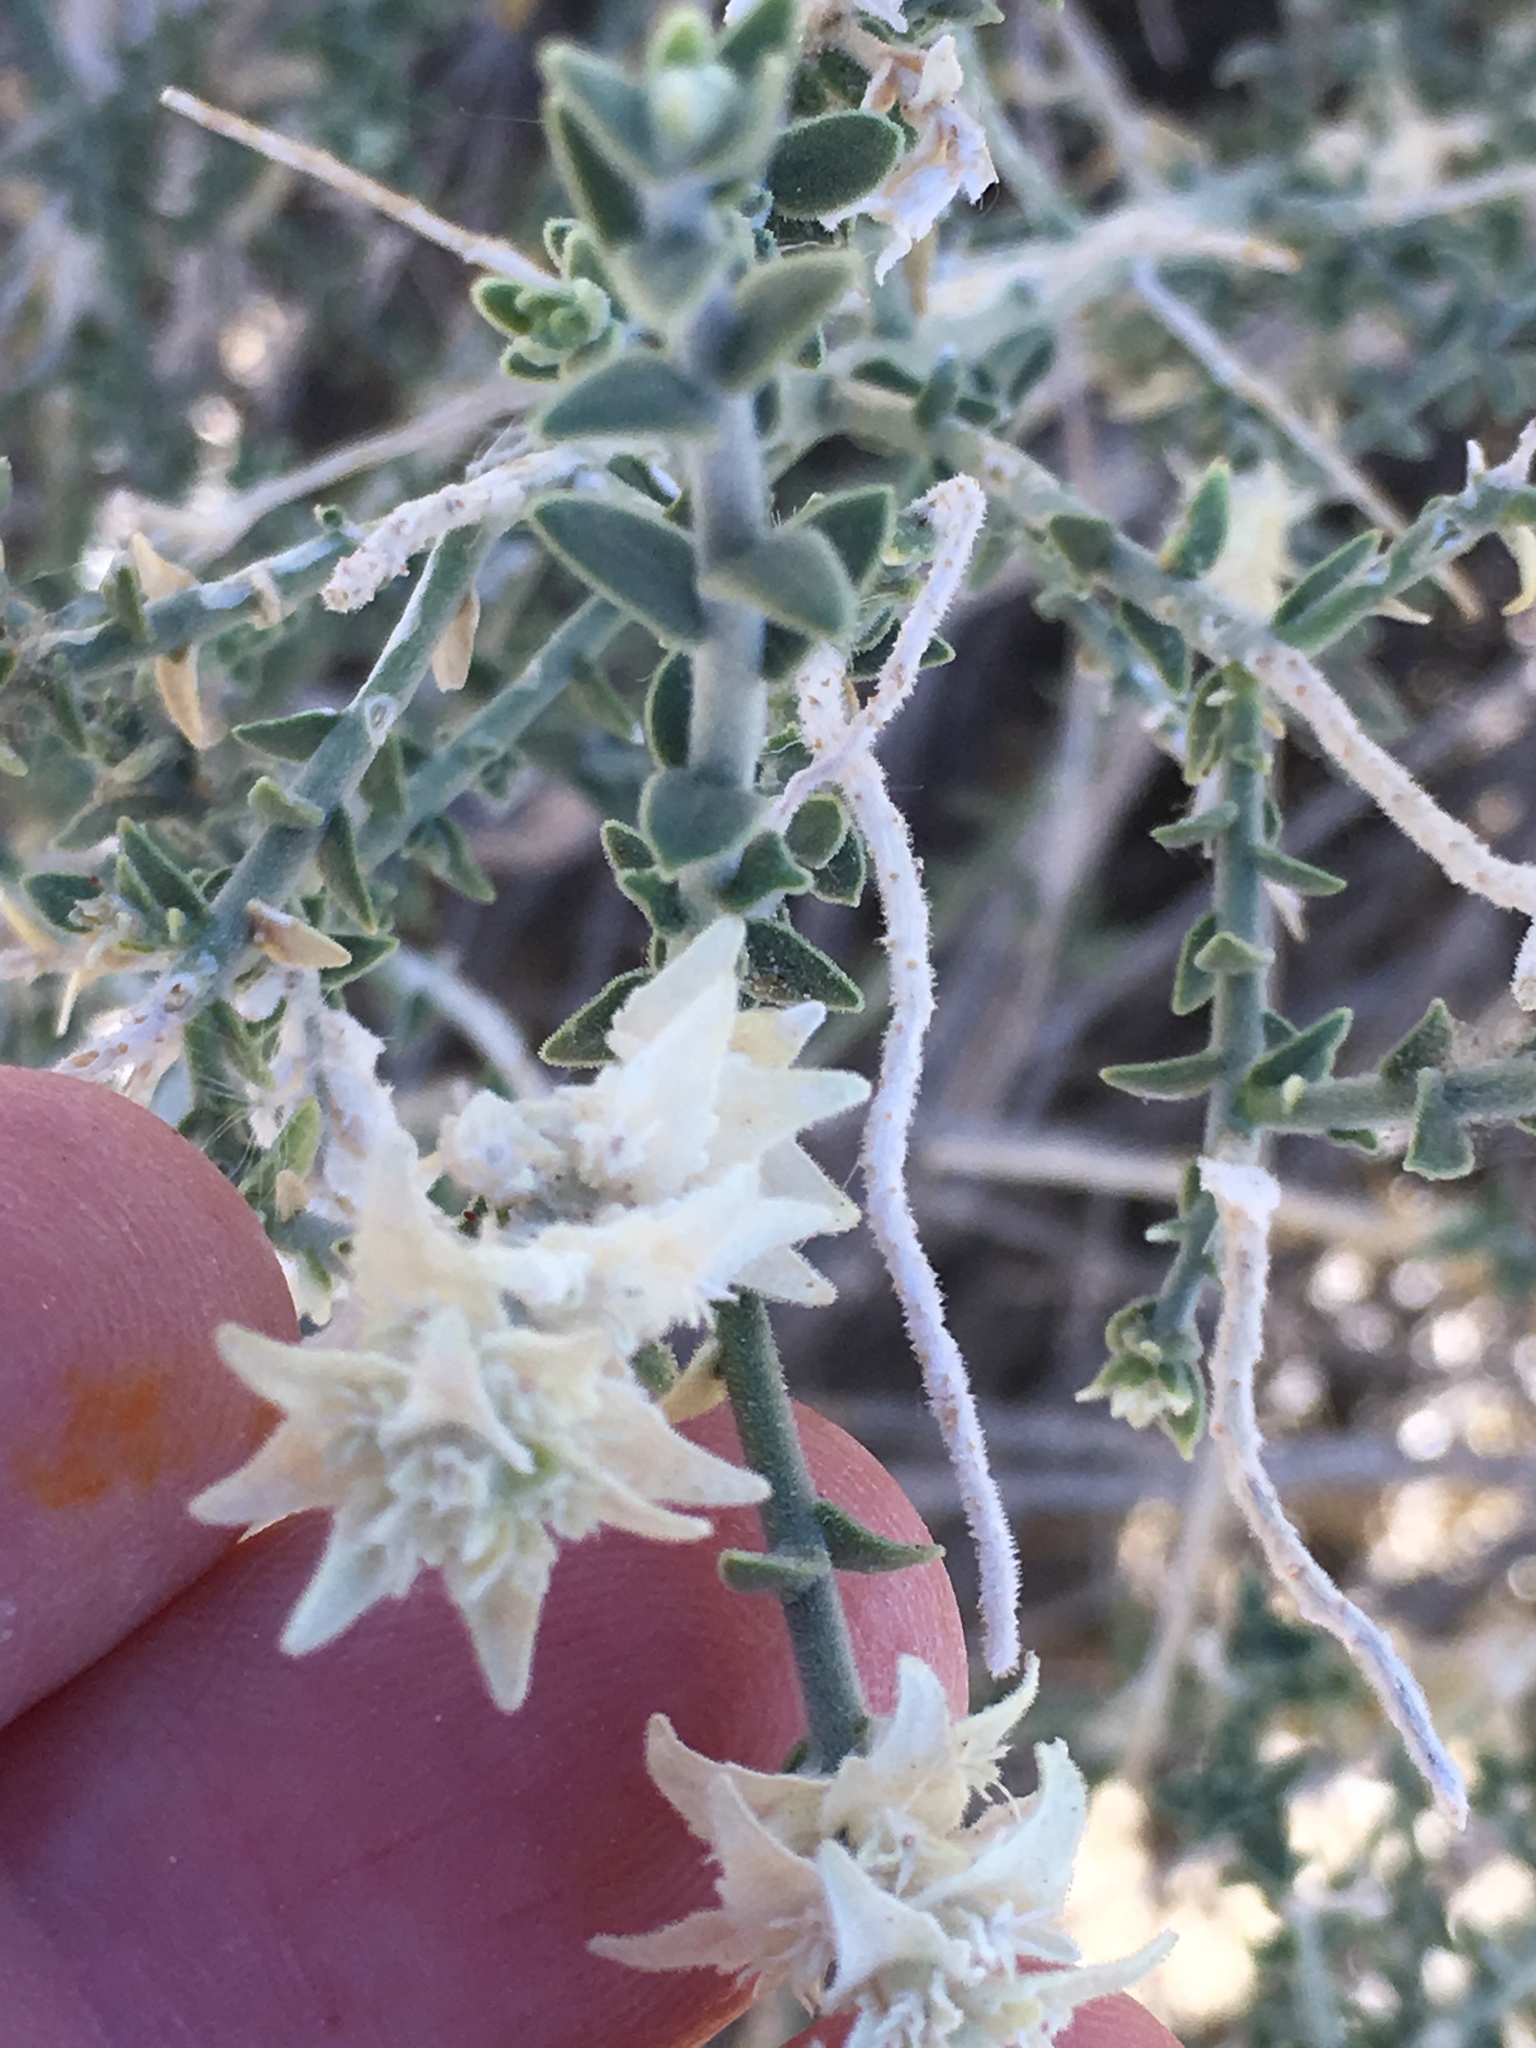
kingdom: Plantae
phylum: Tracheophyta
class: Magnoliopsida
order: Cornales
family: Loasaceae
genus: Petalonyx
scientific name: Petalonyx thurberi
